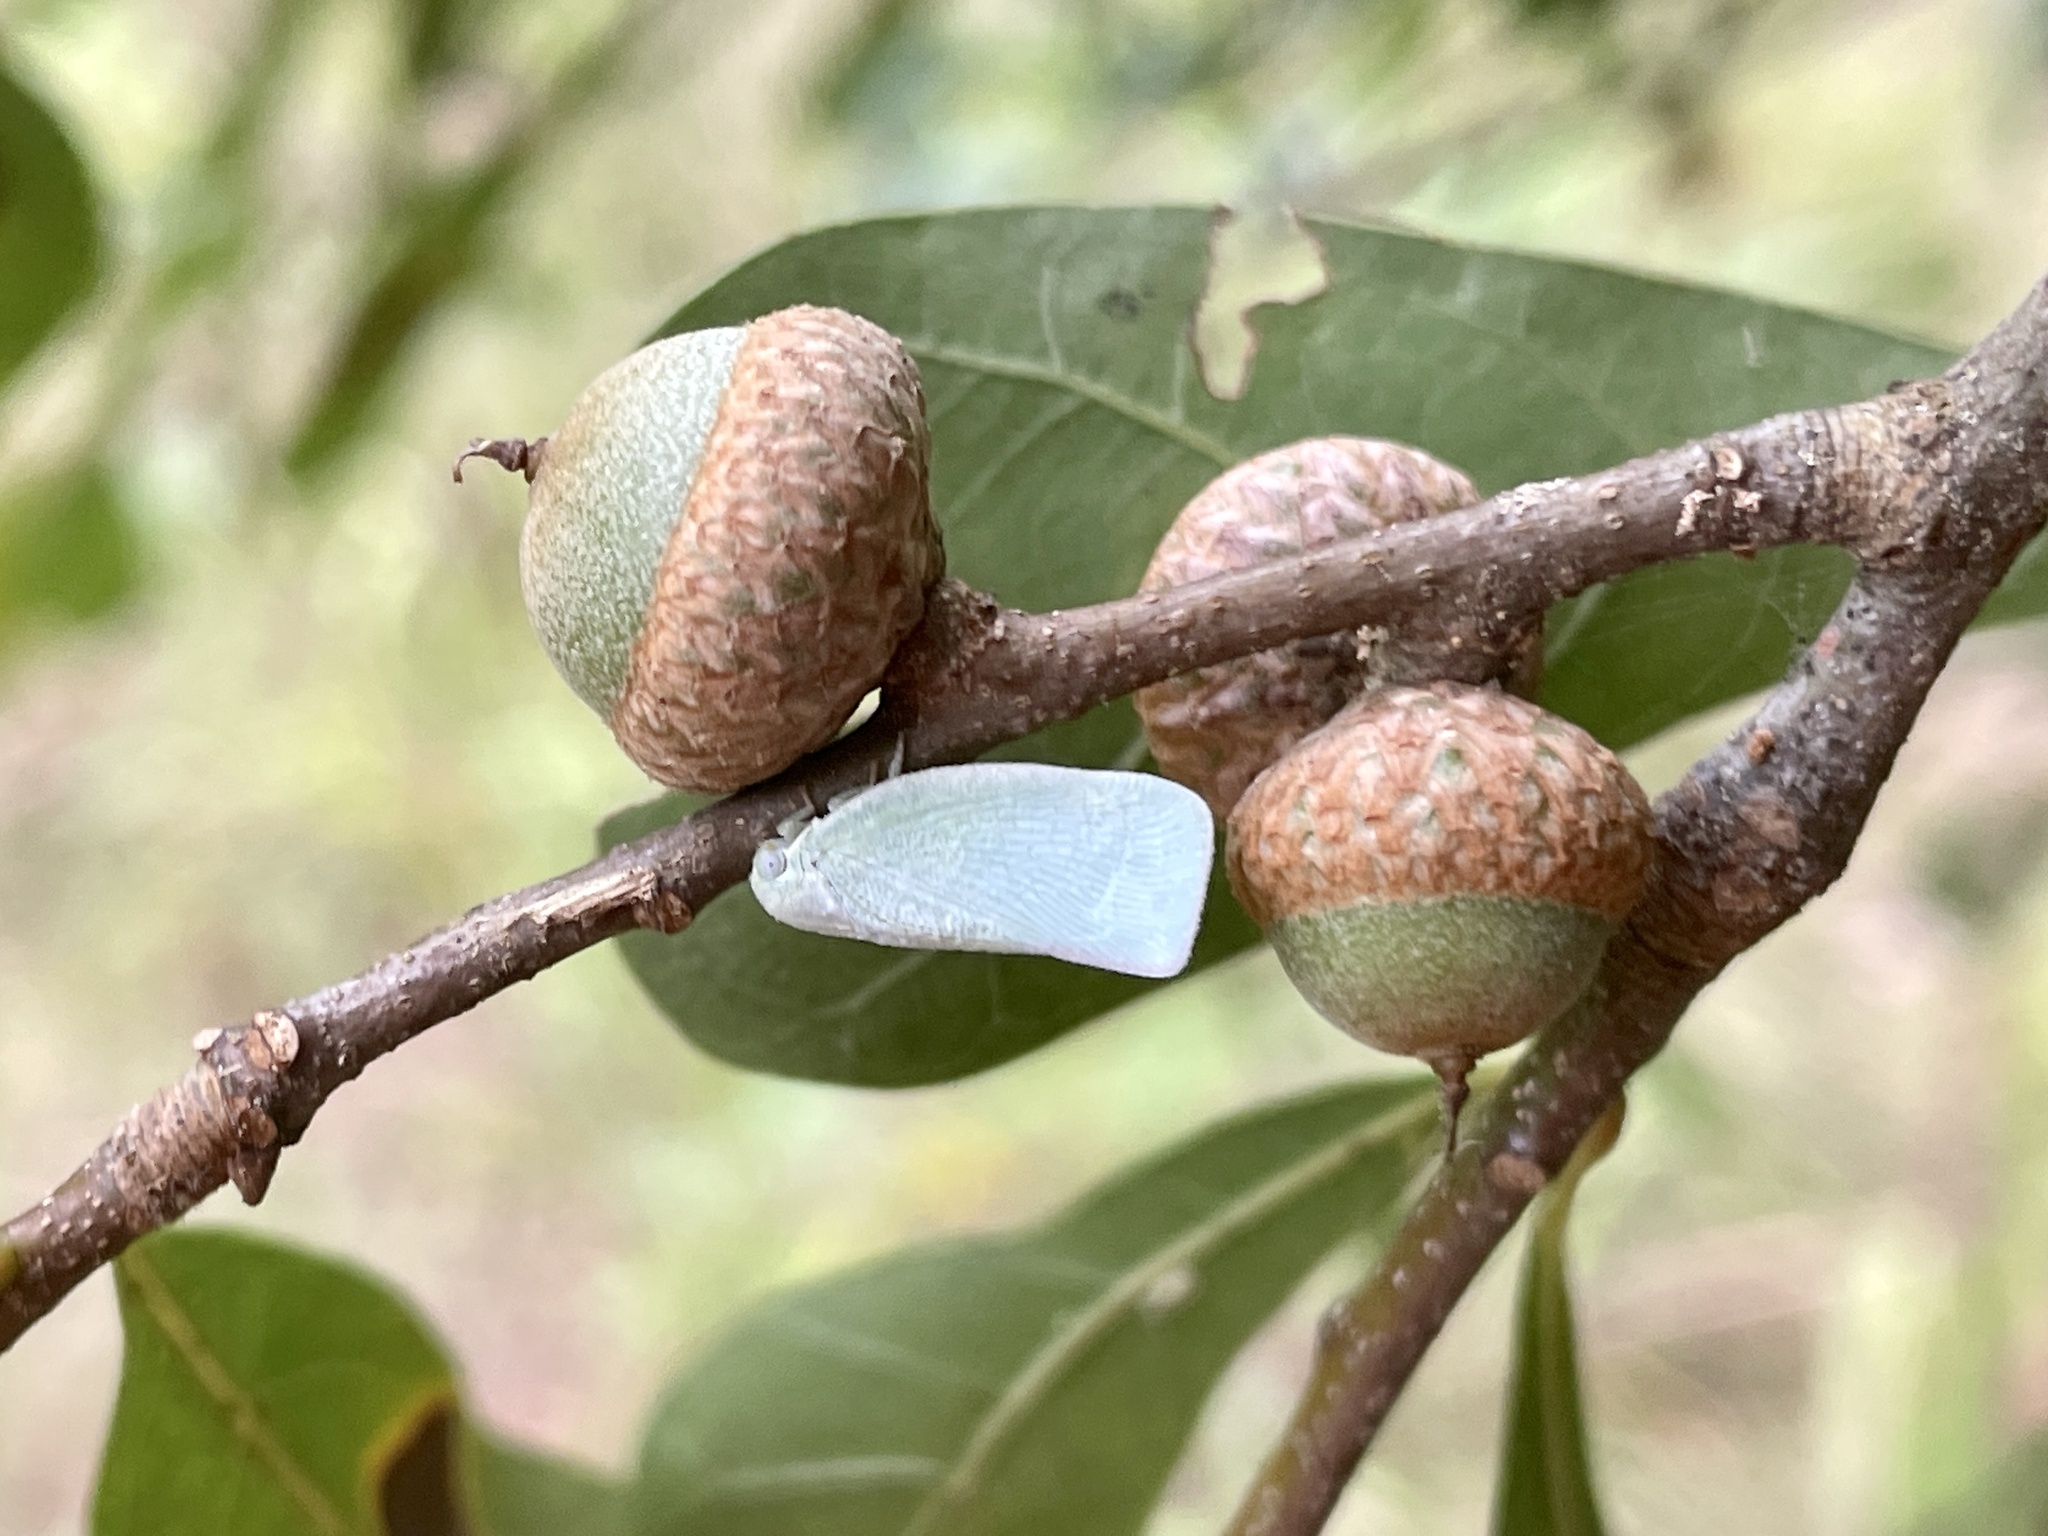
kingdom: Animalia
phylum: Arthropoda
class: Insecta
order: Hemiptera
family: Flatidae
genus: Flatormenis
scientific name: Flatormenis proxima
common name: Northern flatid planthopper
